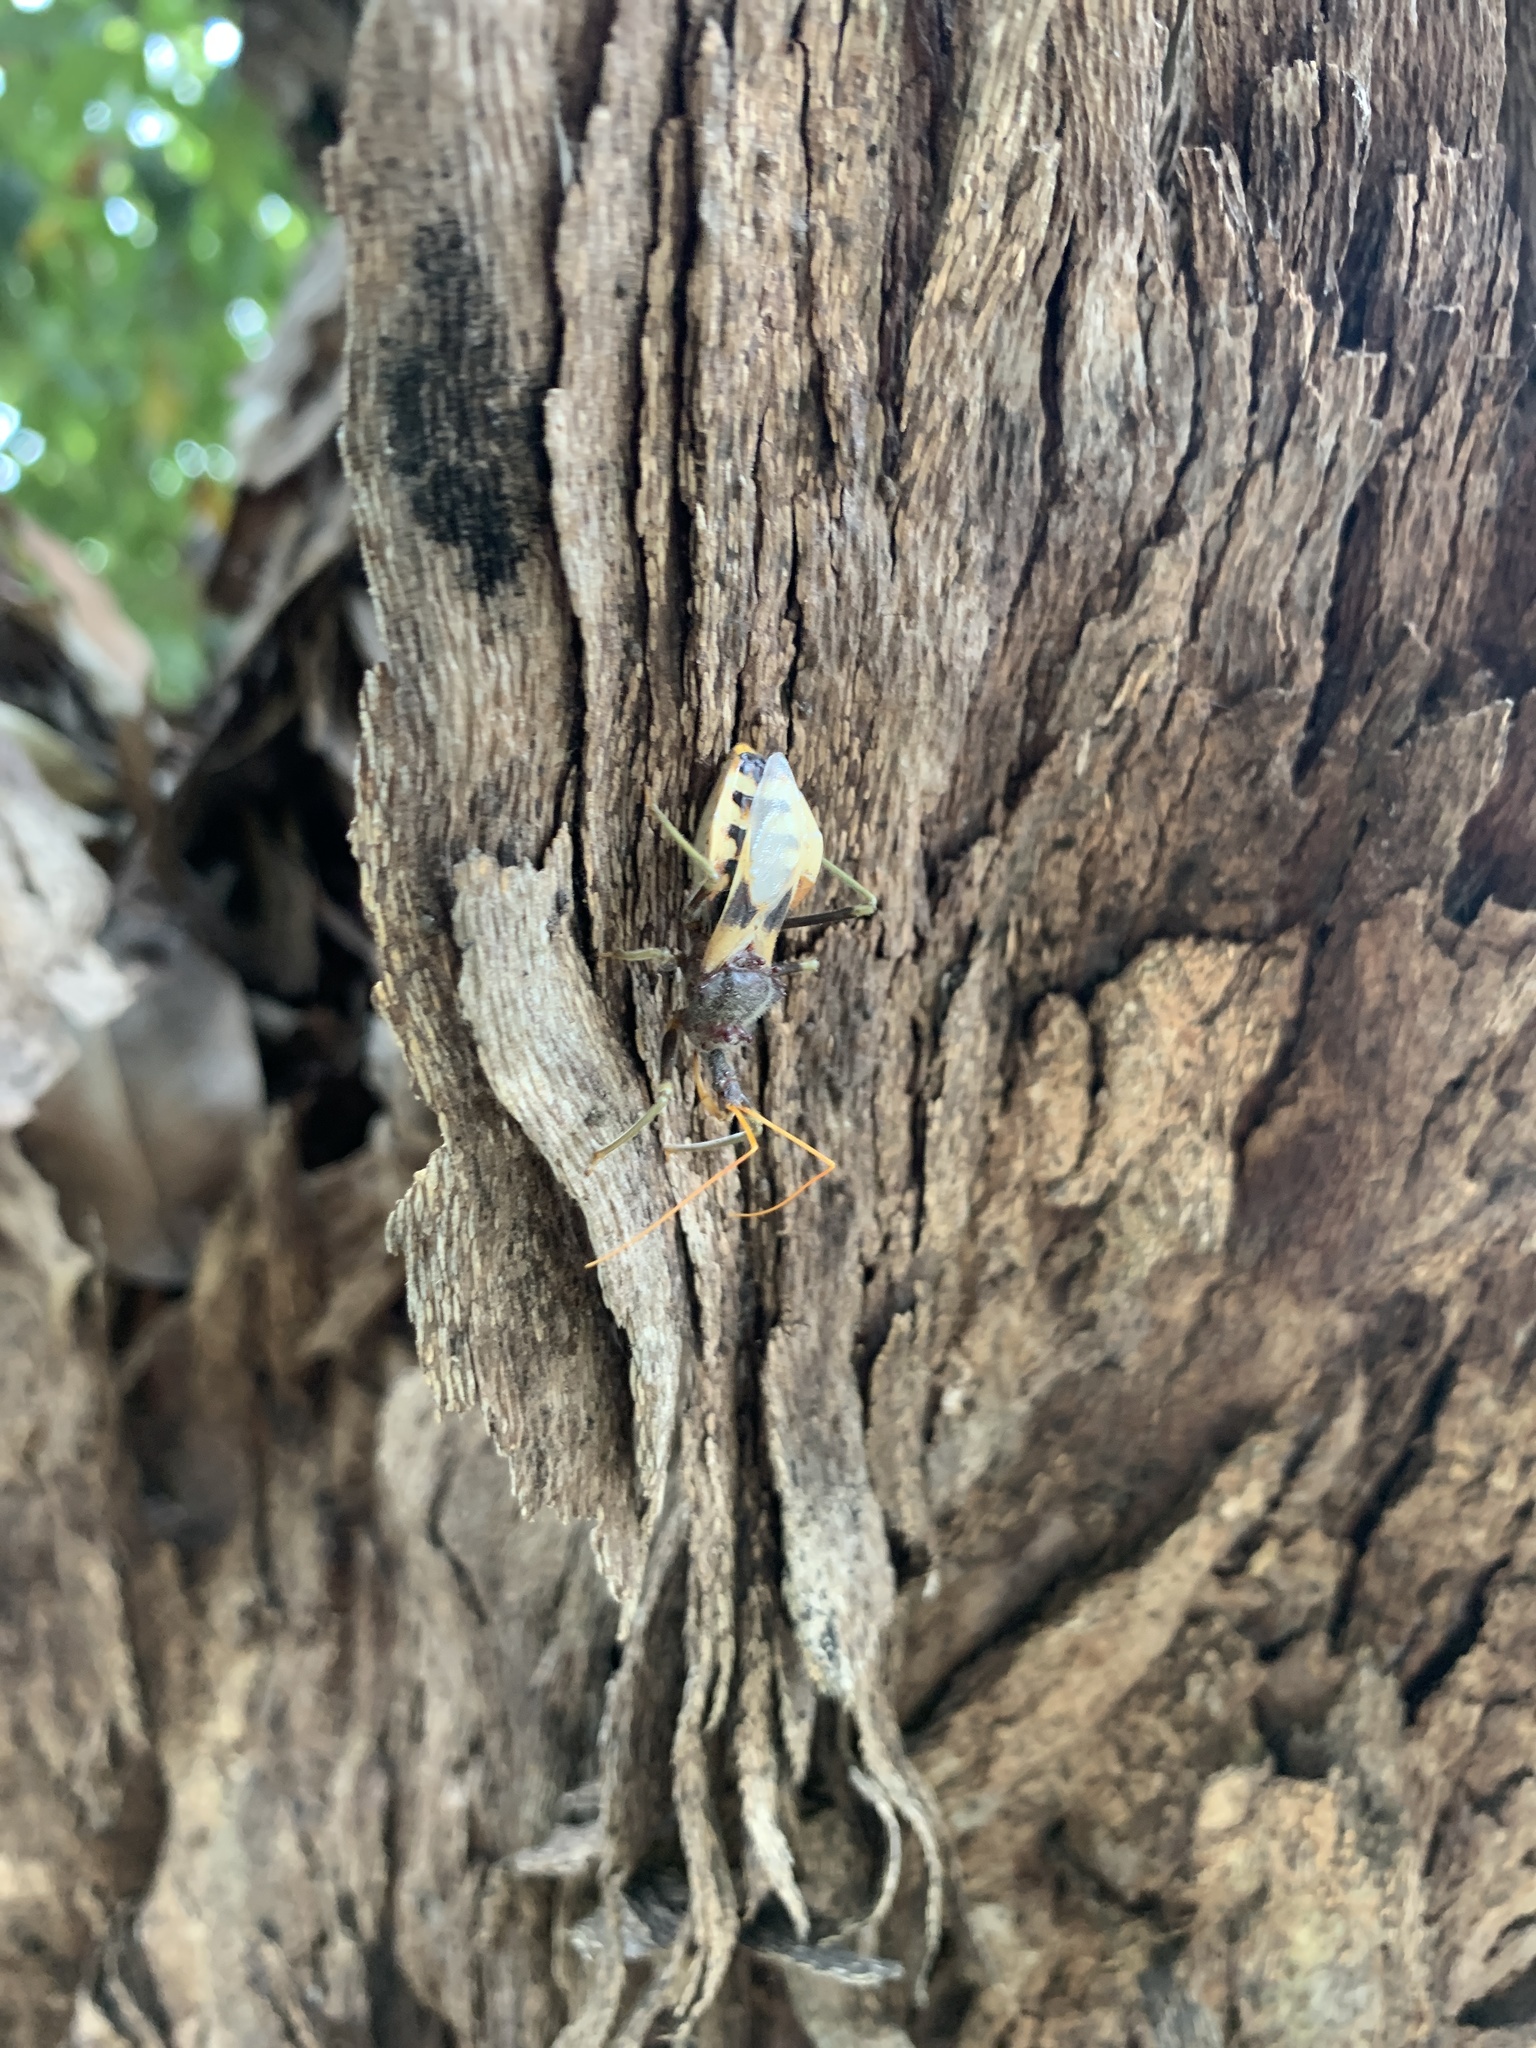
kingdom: Animalia
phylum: Arthropoda
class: Insecta
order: Hemiptera
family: Reduviidae
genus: Pristhesancus
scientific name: Pristhesancus plagipennis
